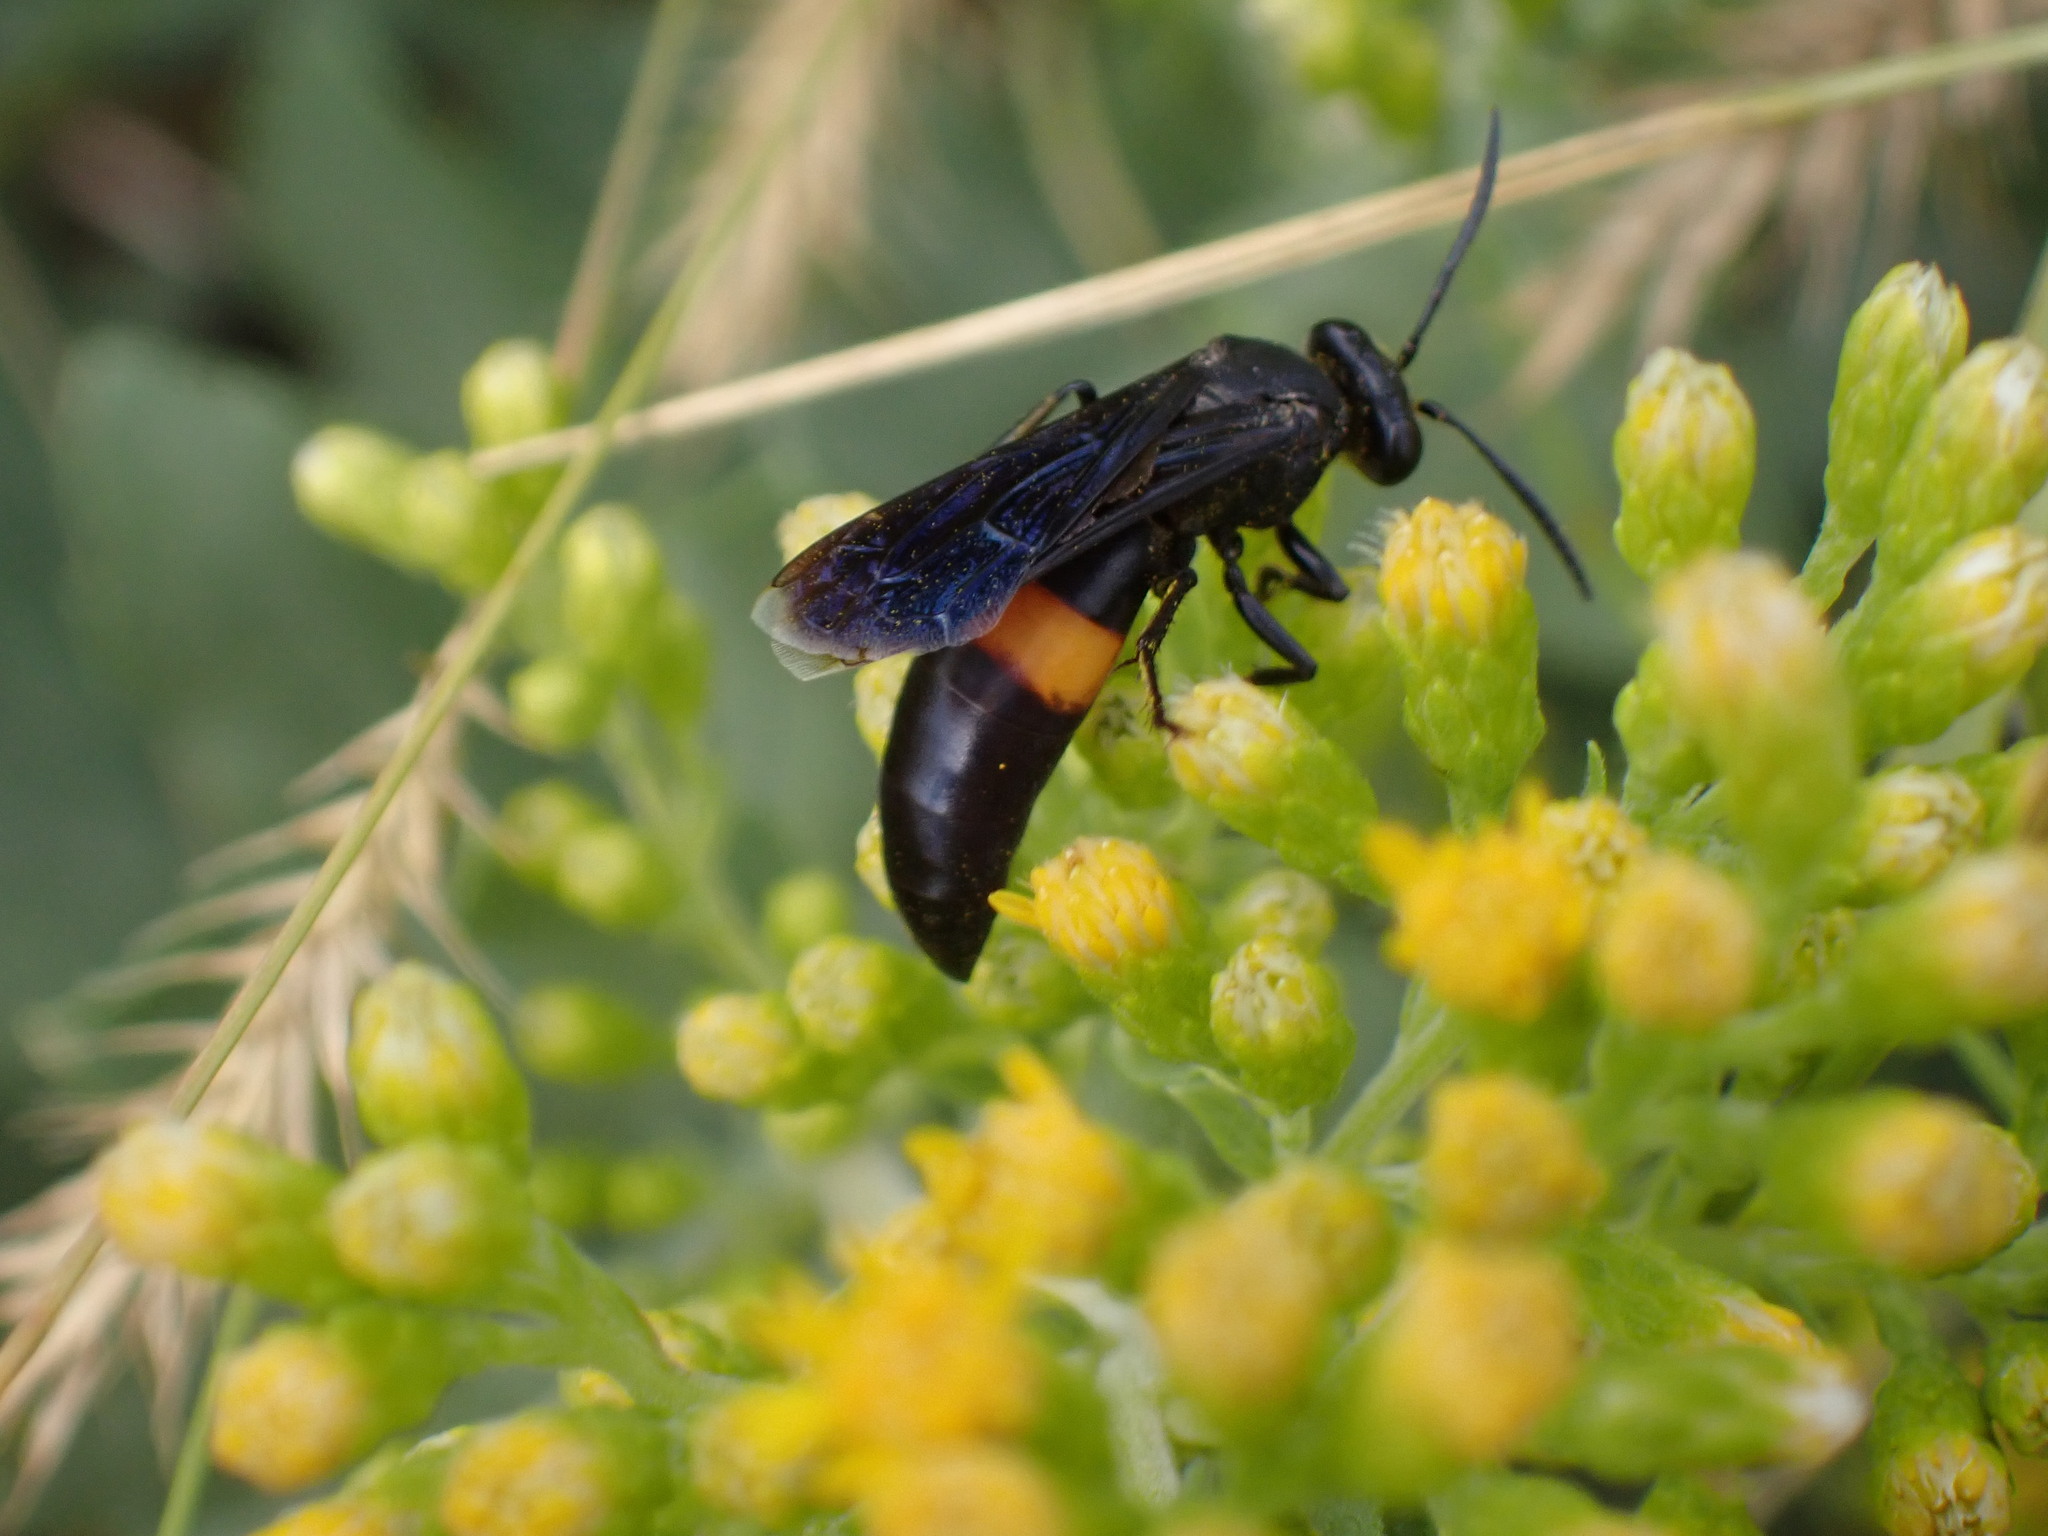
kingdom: Animalia
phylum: Arthropoda
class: Insecta
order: Hymenoptera
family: Crabronidae
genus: Stizoides
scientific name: Stizoides renicinctus
